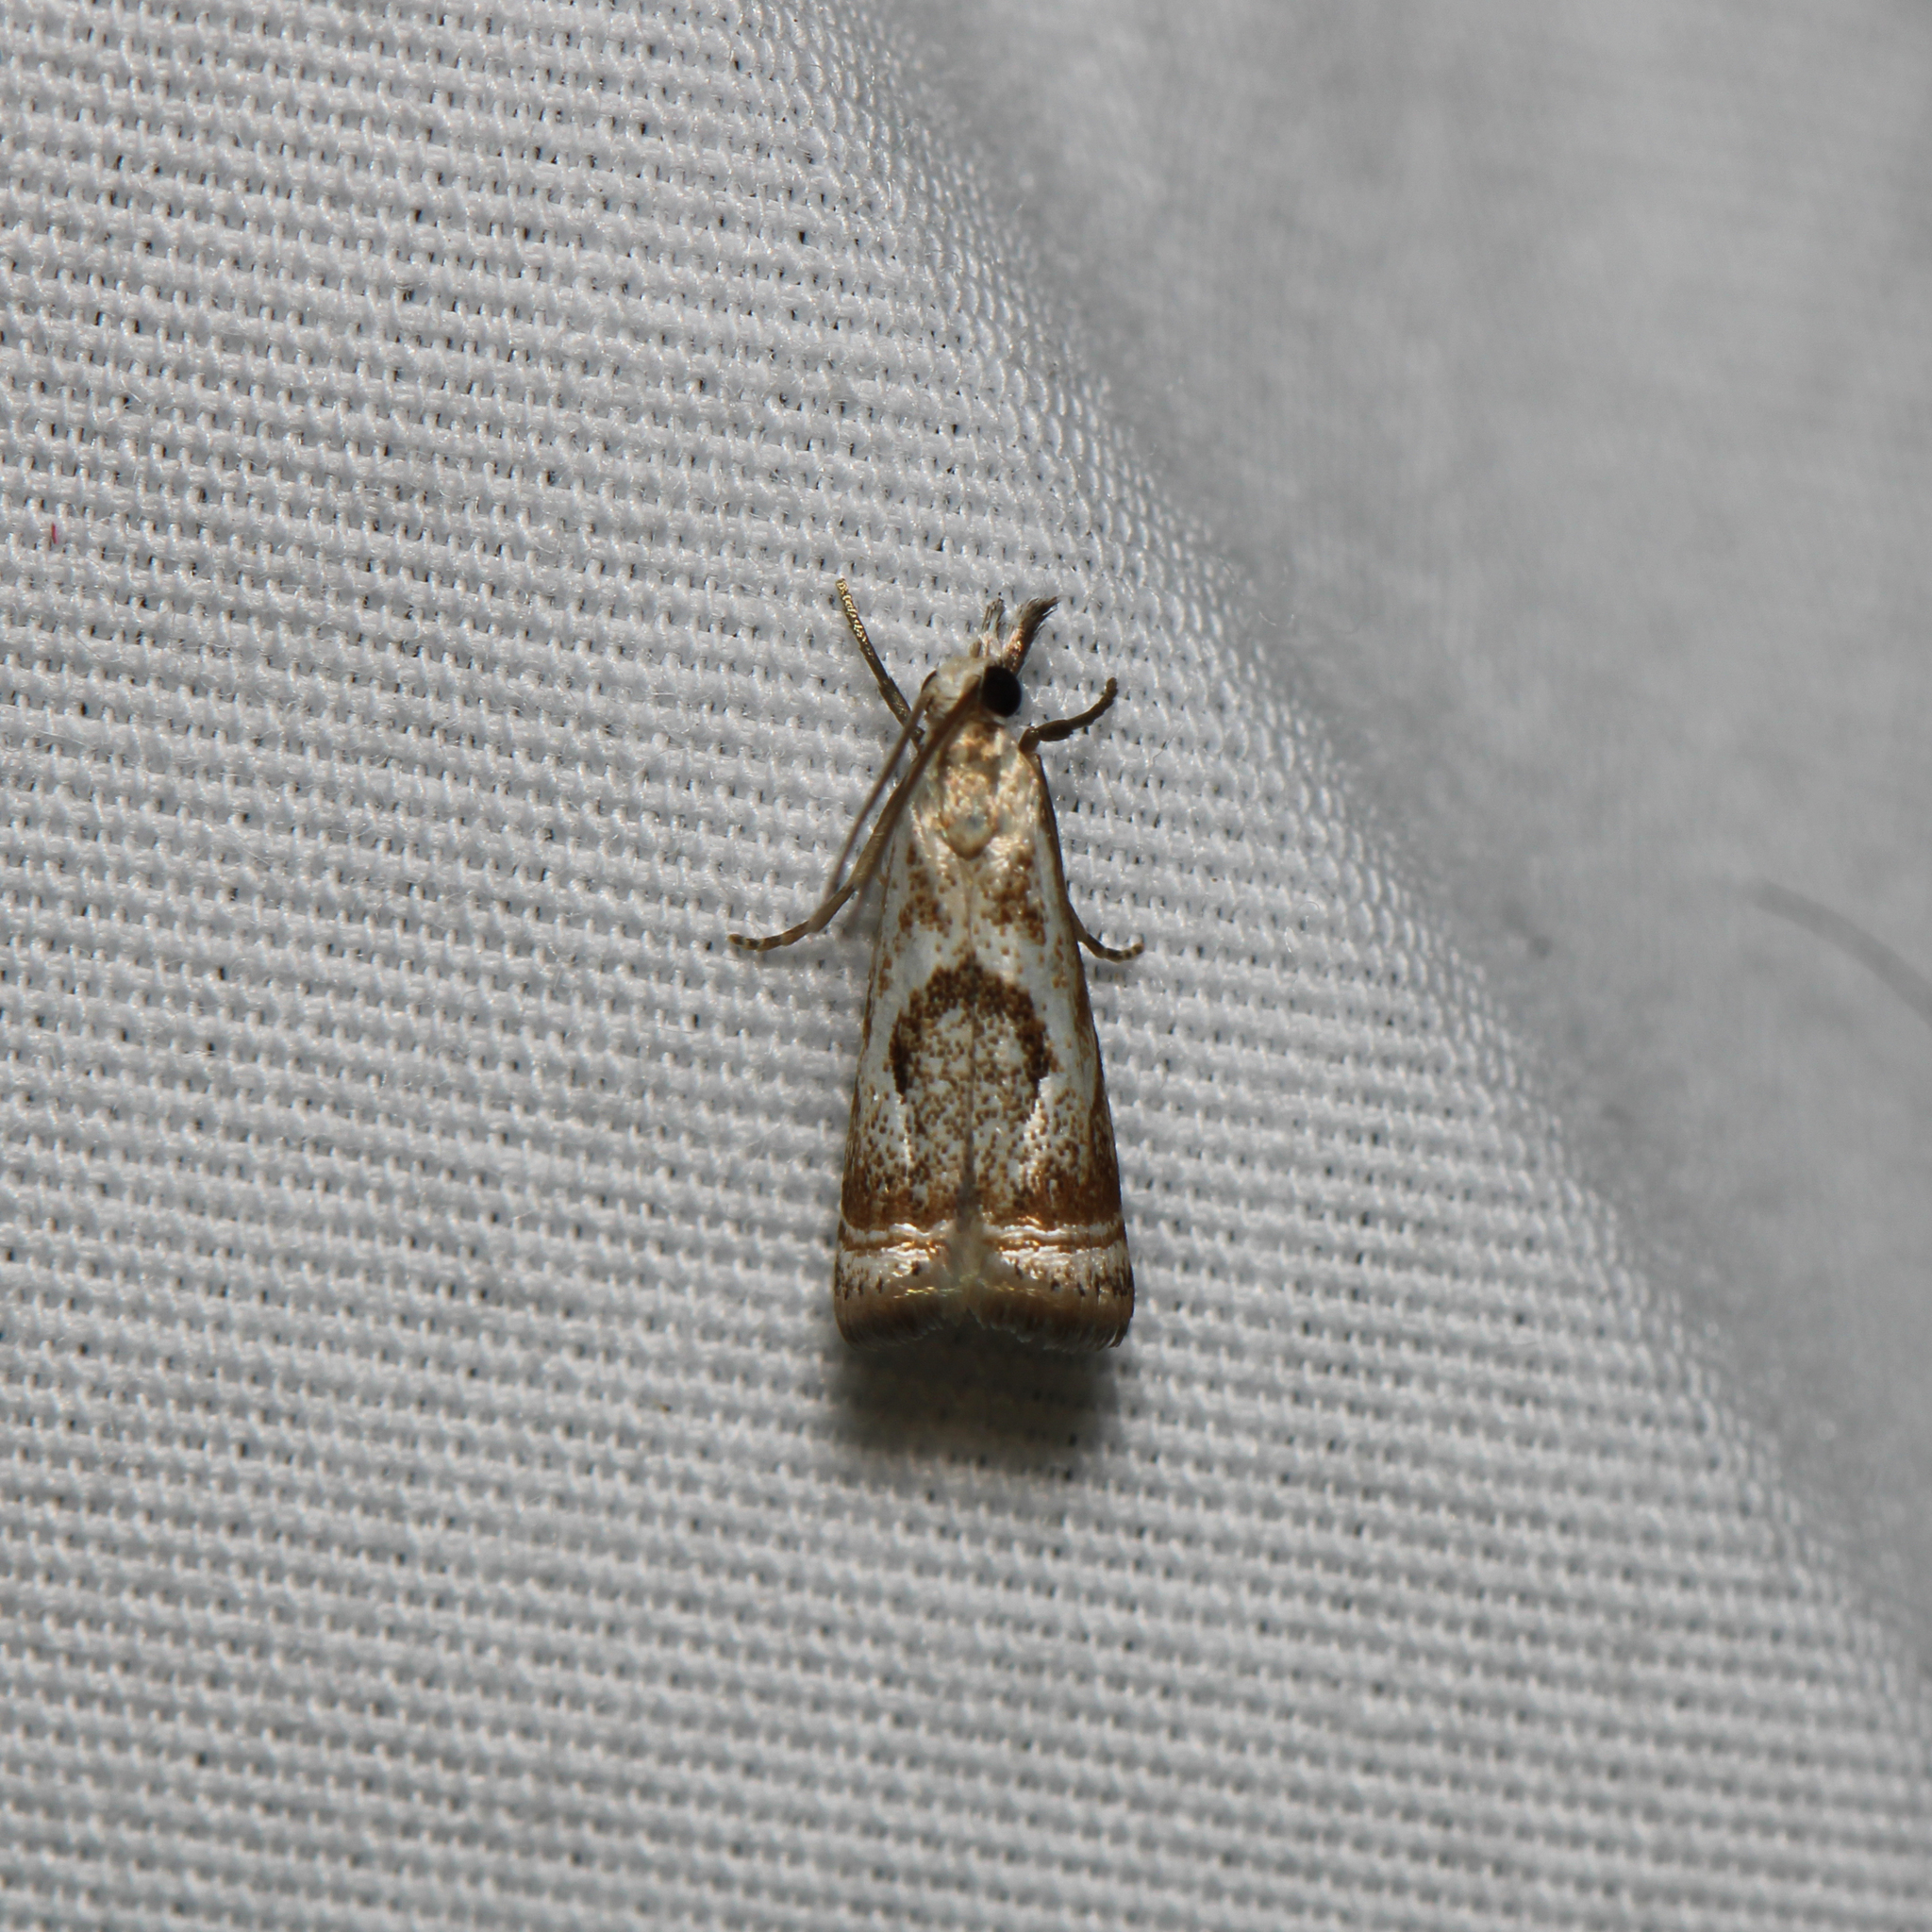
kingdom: Animalia
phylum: Arthropoda
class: Insecta
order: Lepidoptera
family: Crambidae
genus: Microcrambus
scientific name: Microcrambus elegans
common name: Elegant grass-veneer
